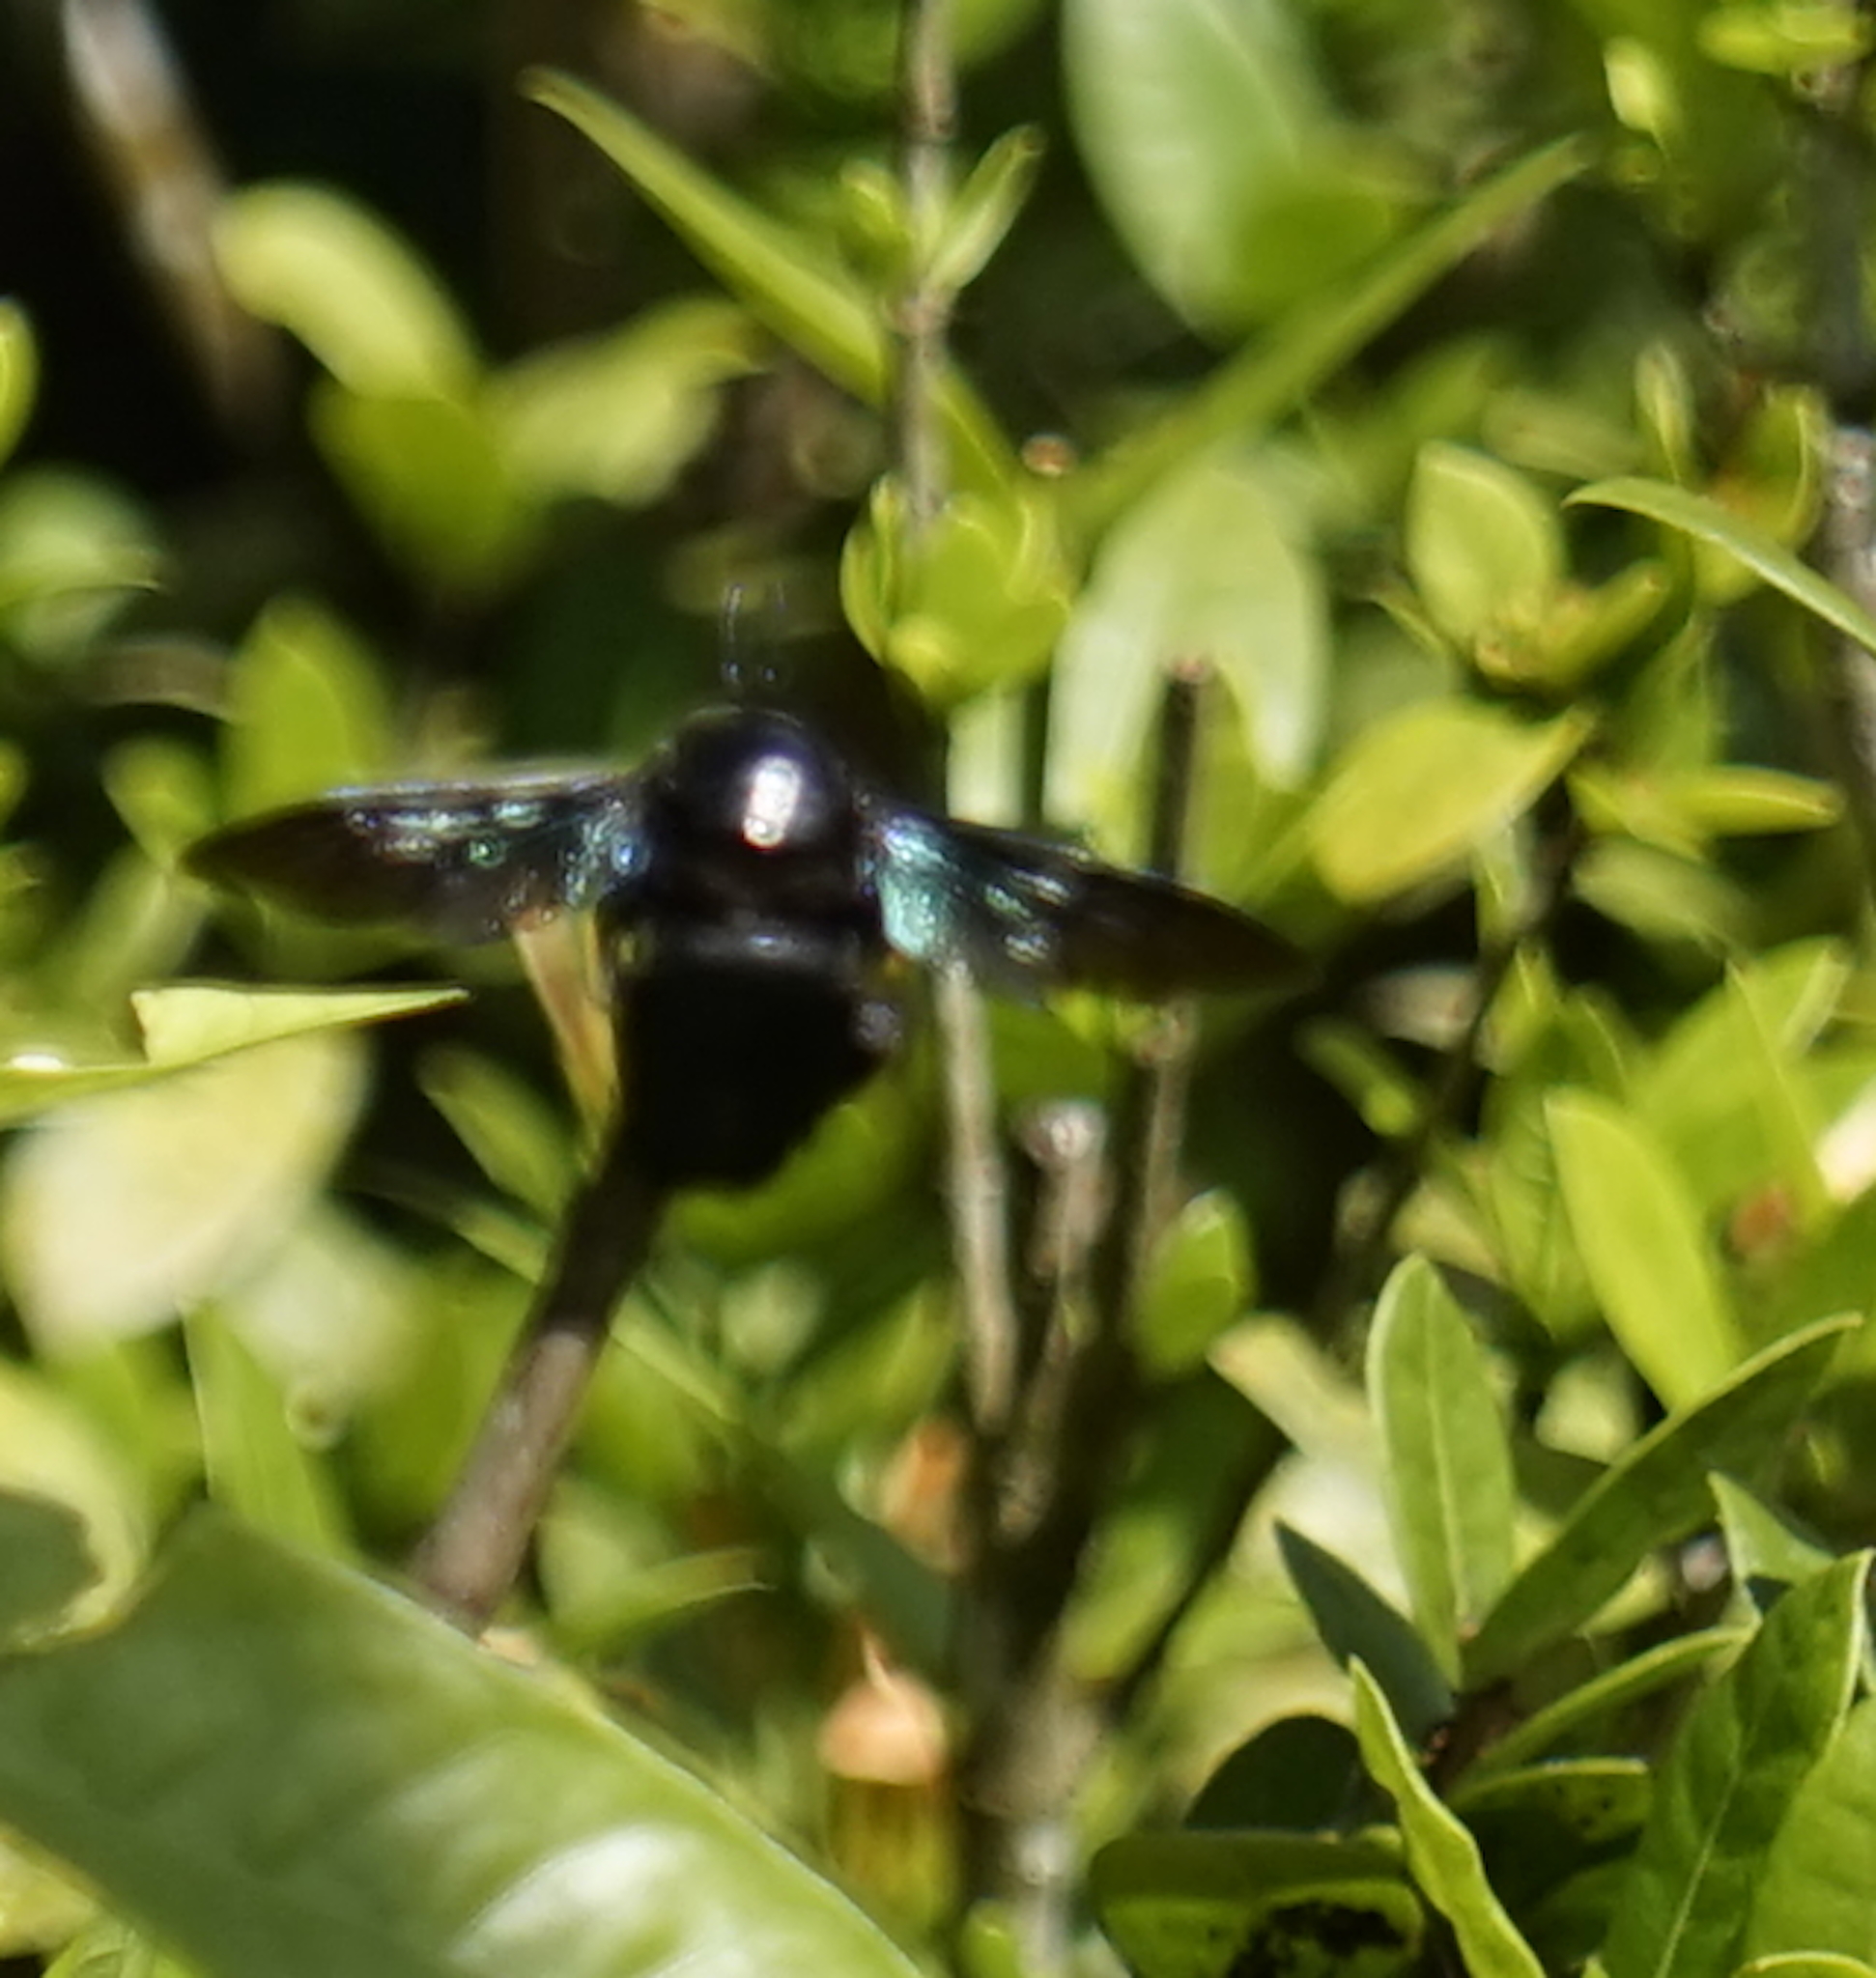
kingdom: Animalia
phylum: Arthropoda
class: Insecta
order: Hymenoptera
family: Apidae
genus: Xylocopa
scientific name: Xylocopa latipes
